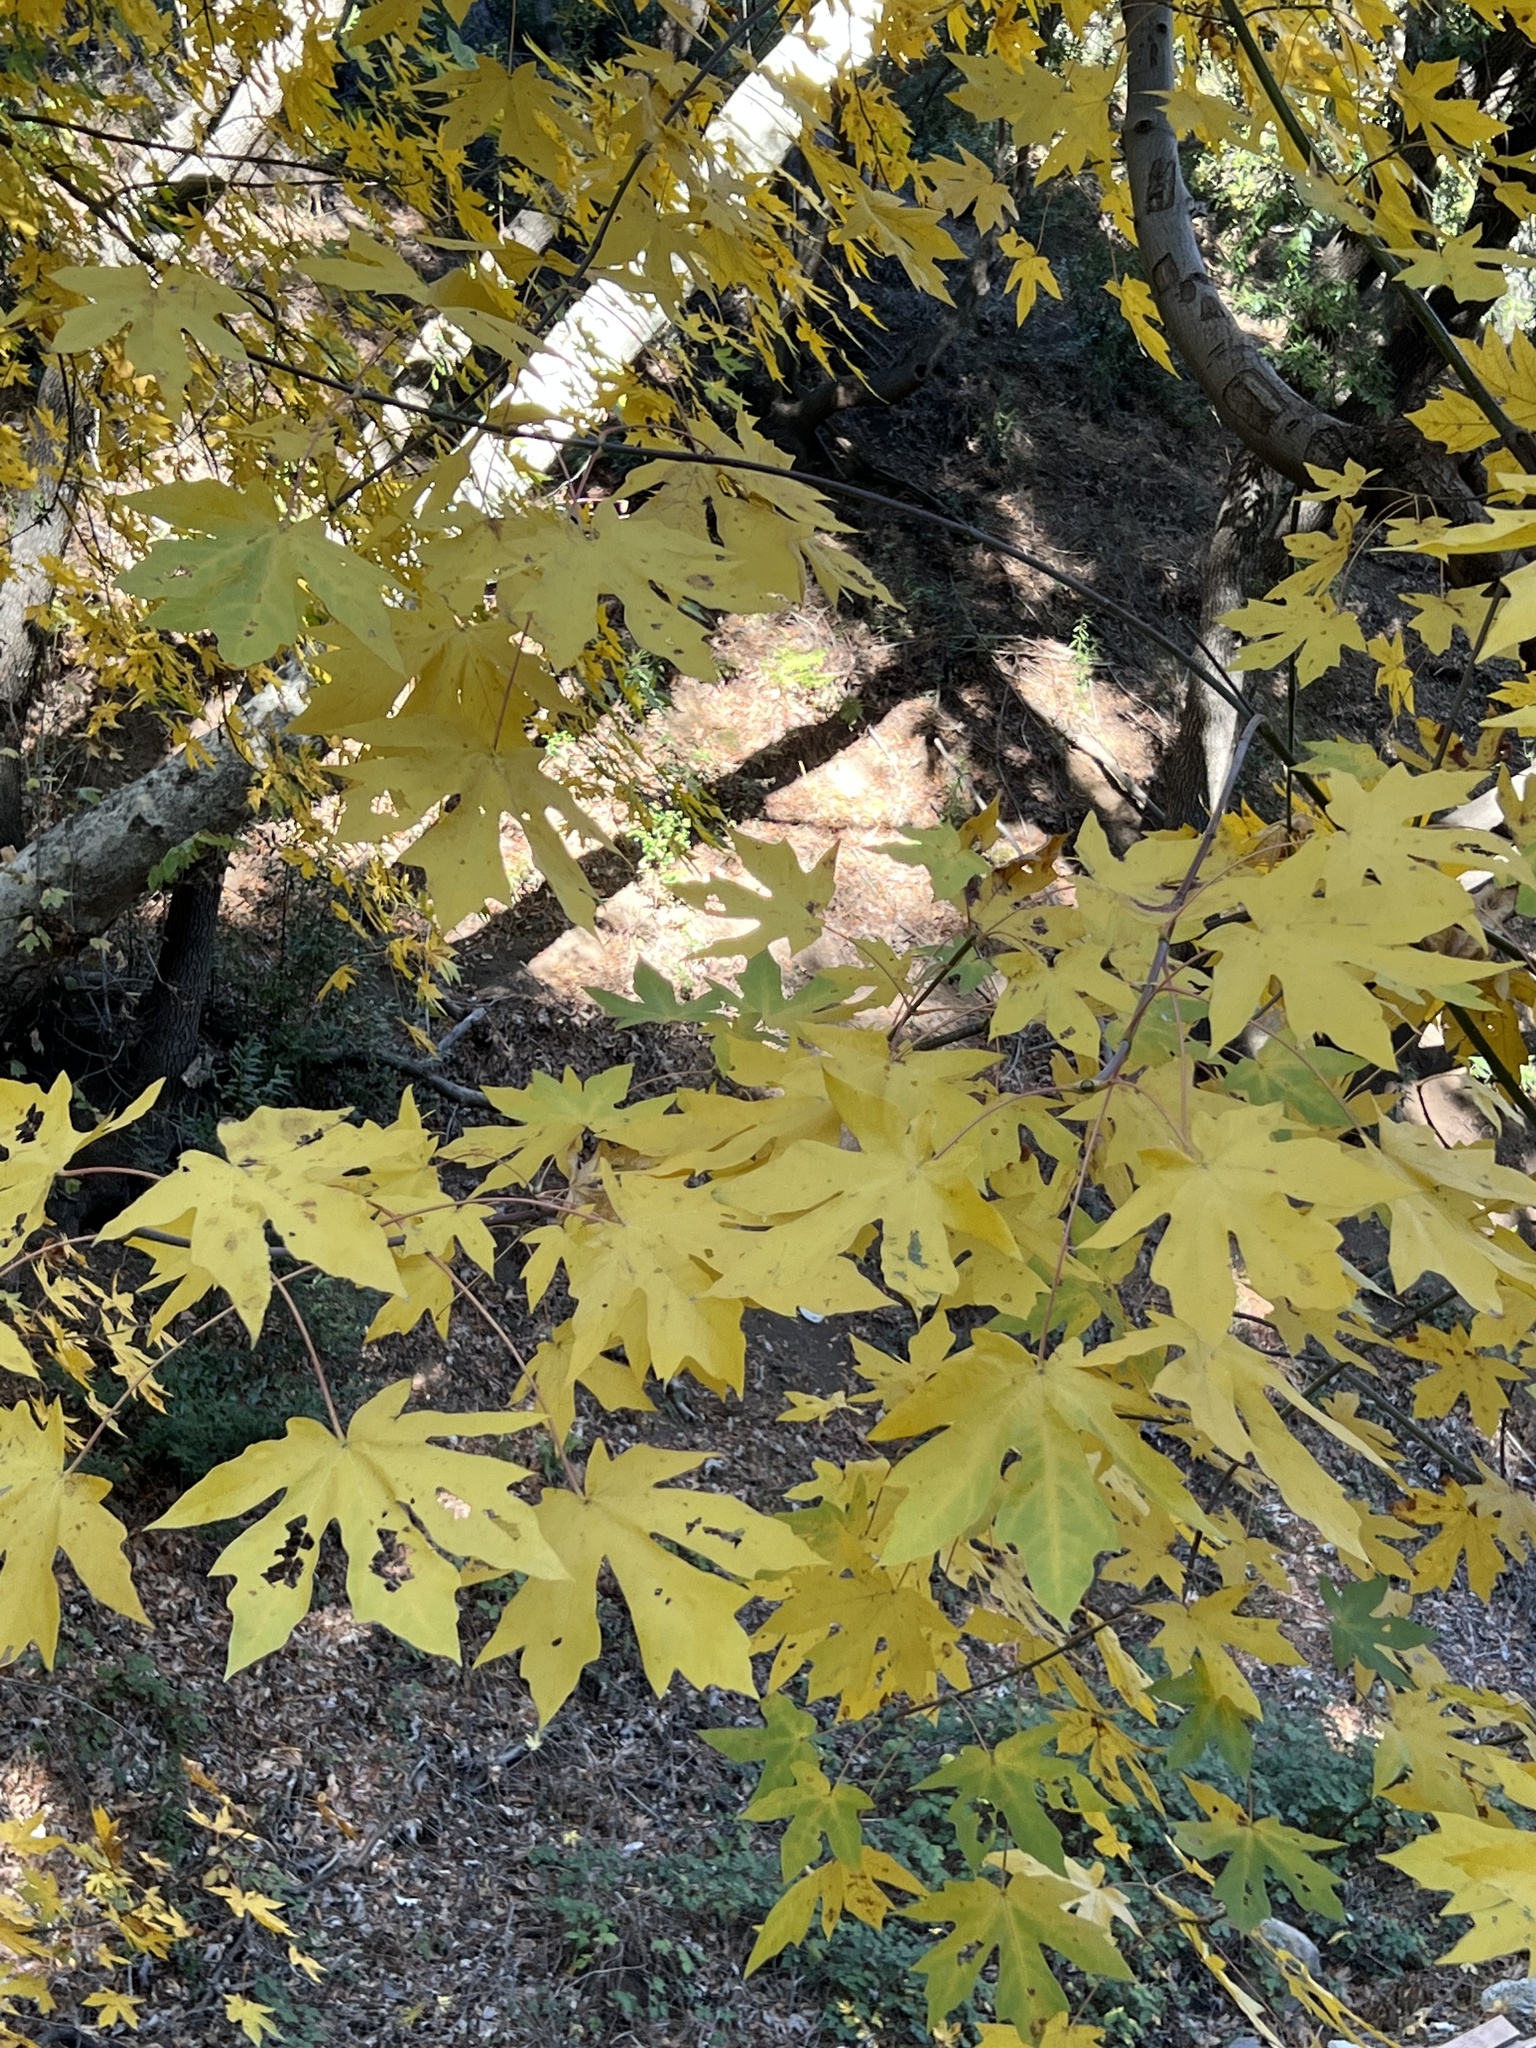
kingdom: Plantae
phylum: Tracheophyta
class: Magnoliopsida
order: Sapindales
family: Sapindaceae
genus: Acer
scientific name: Acer macrophyllum
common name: Oregon maple
